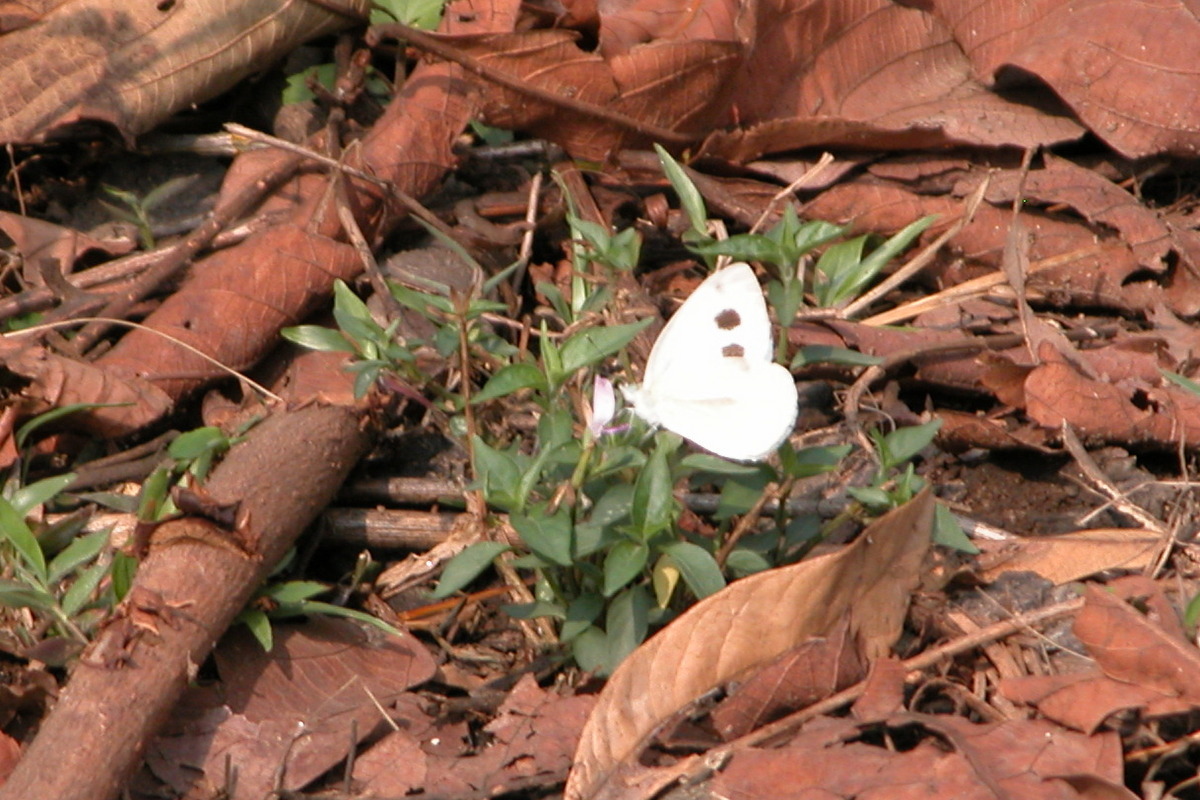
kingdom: Animalia
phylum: Arthropoda
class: Insecta
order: Lepidoptera
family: Pieridae
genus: Pieris
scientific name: Pieris canidia
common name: Indian cabbage white
